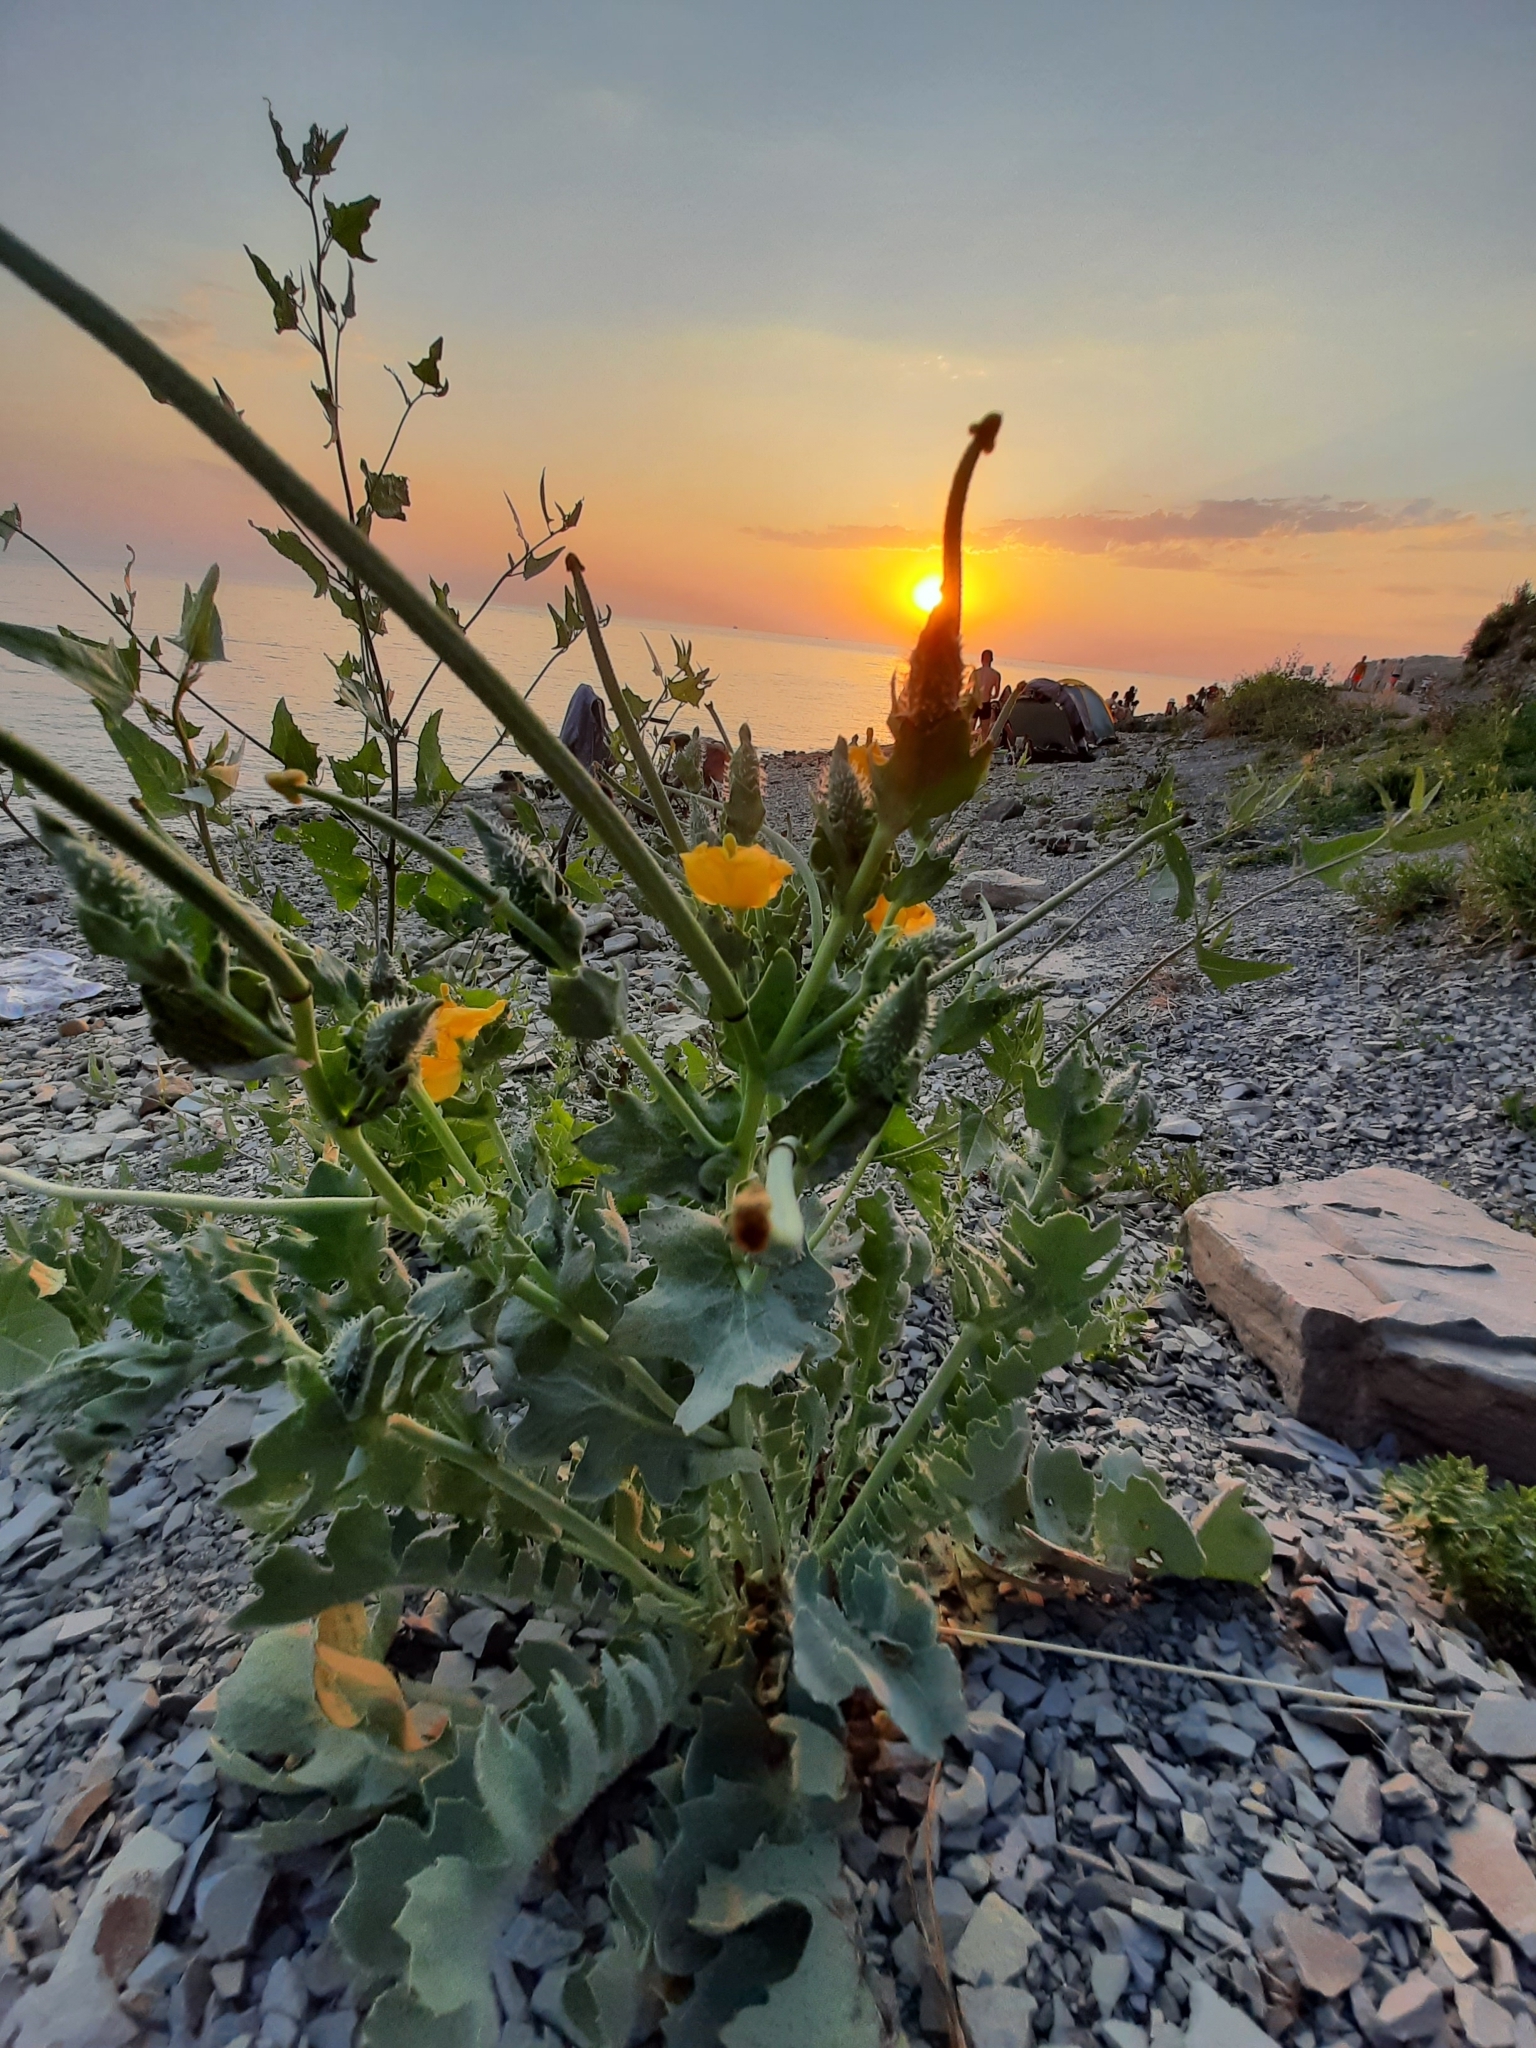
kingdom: Plantae
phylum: Tracheophyta
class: Magnoliopsida
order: Ranunculales
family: Papaveraceae
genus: Glaucium
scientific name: Glaucium flavum
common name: Yellow horned-poppy
